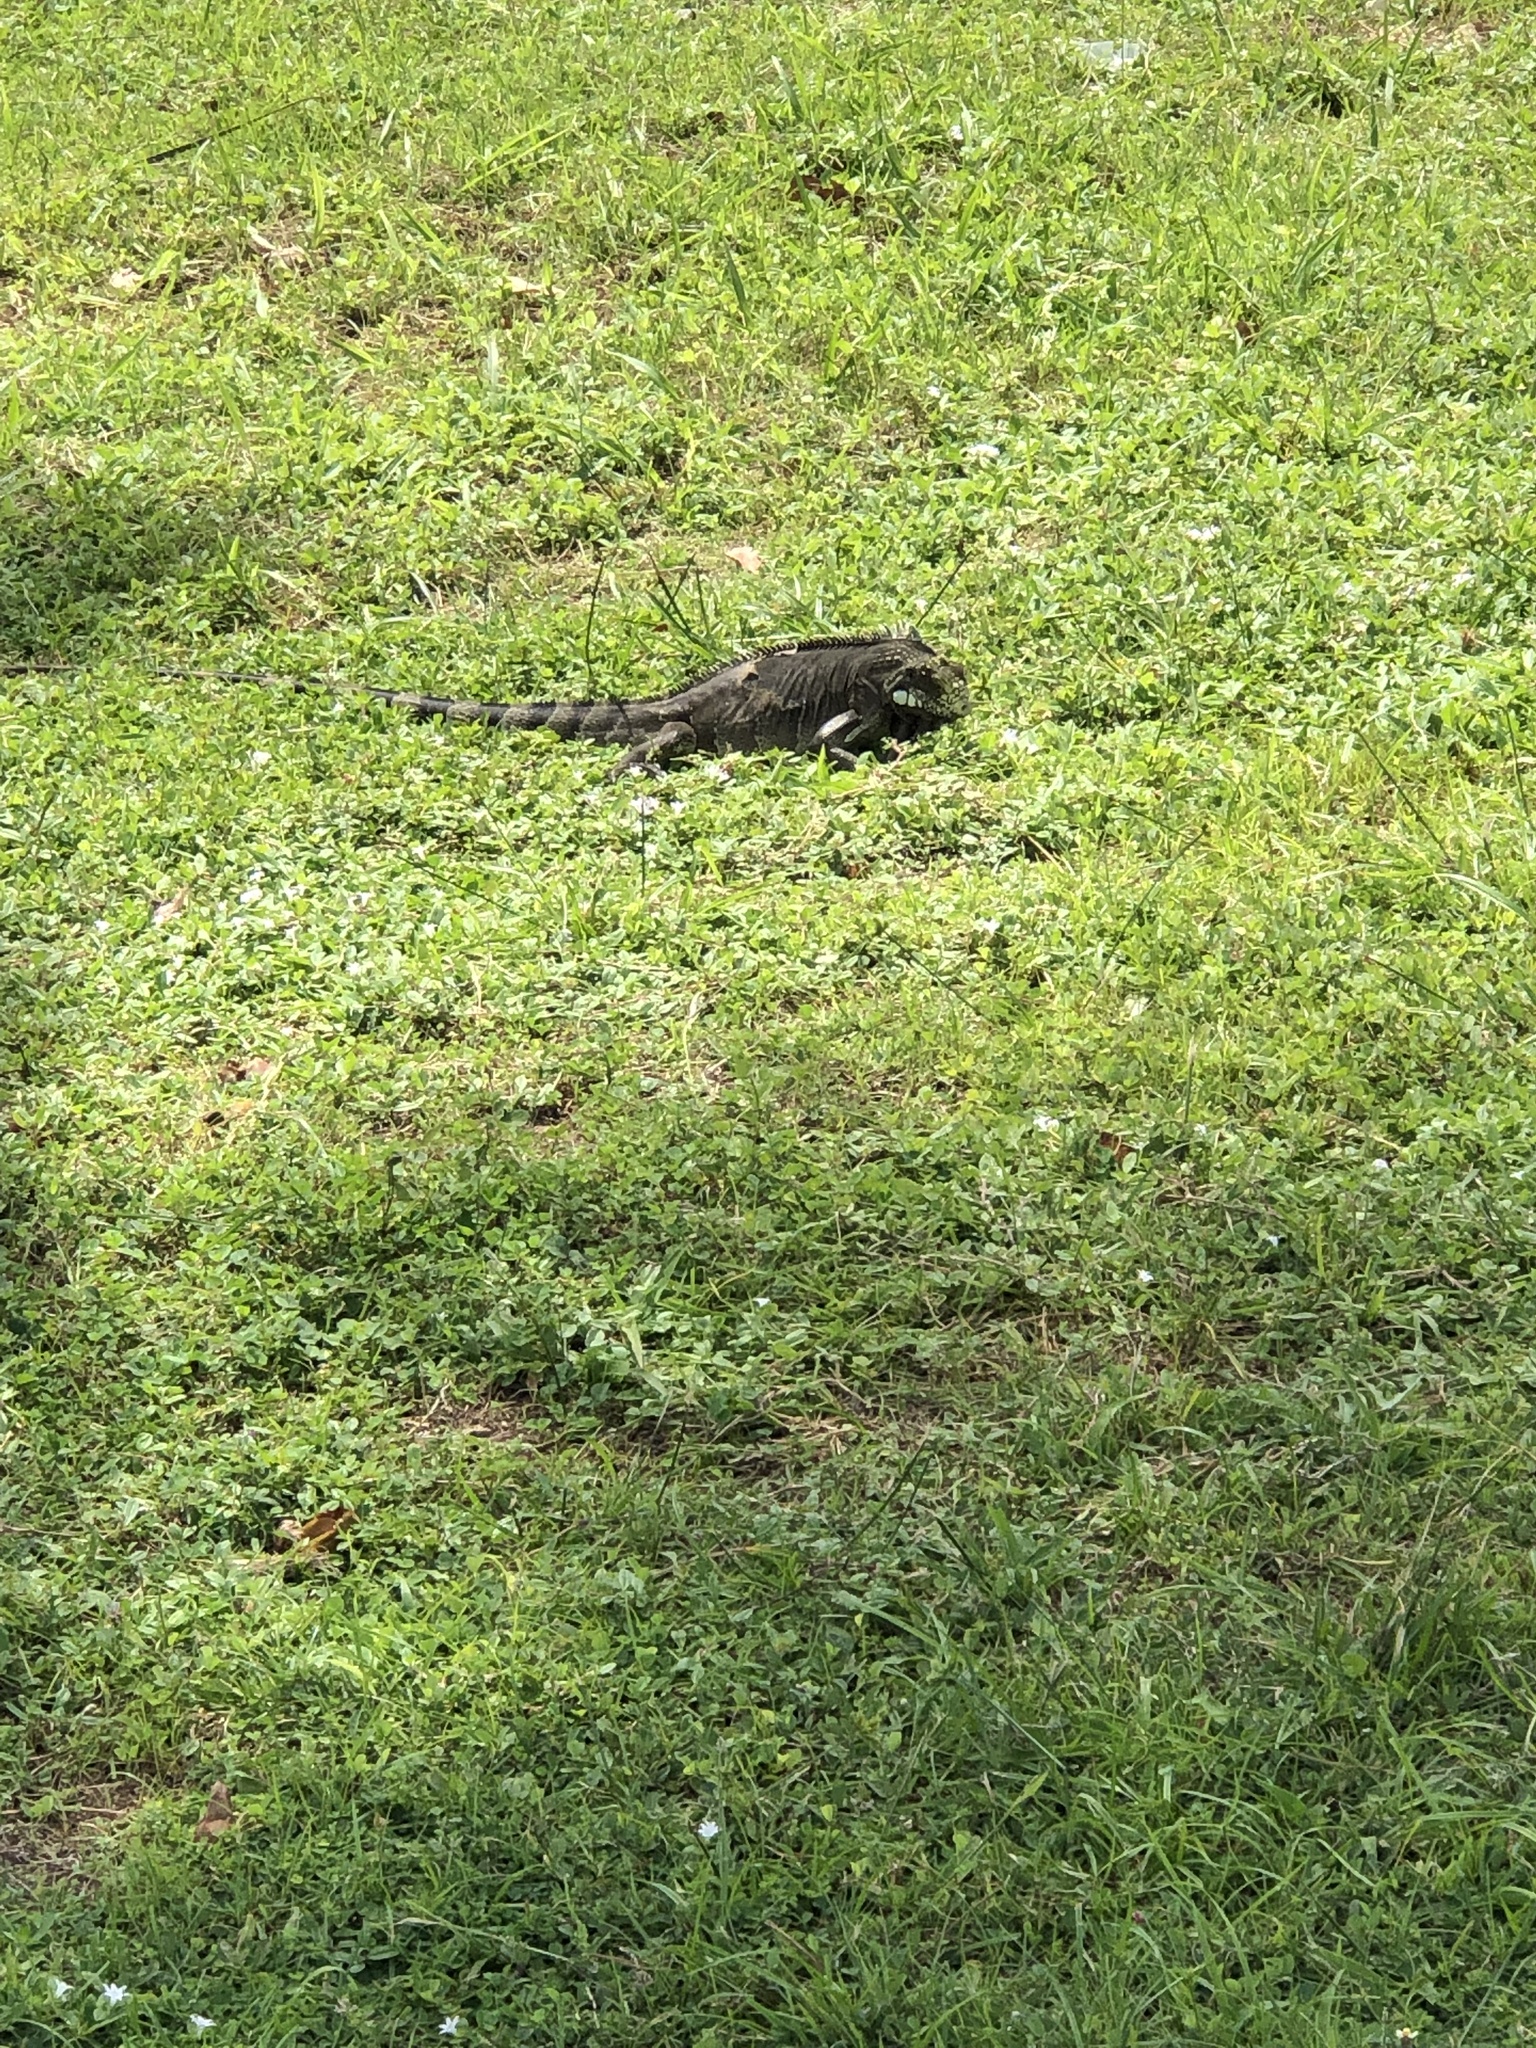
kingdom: Animalia
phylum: Chordata
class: Squamata
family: Iguanidae
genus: Iguana
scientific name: Iguana iguana
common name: Green iguana
